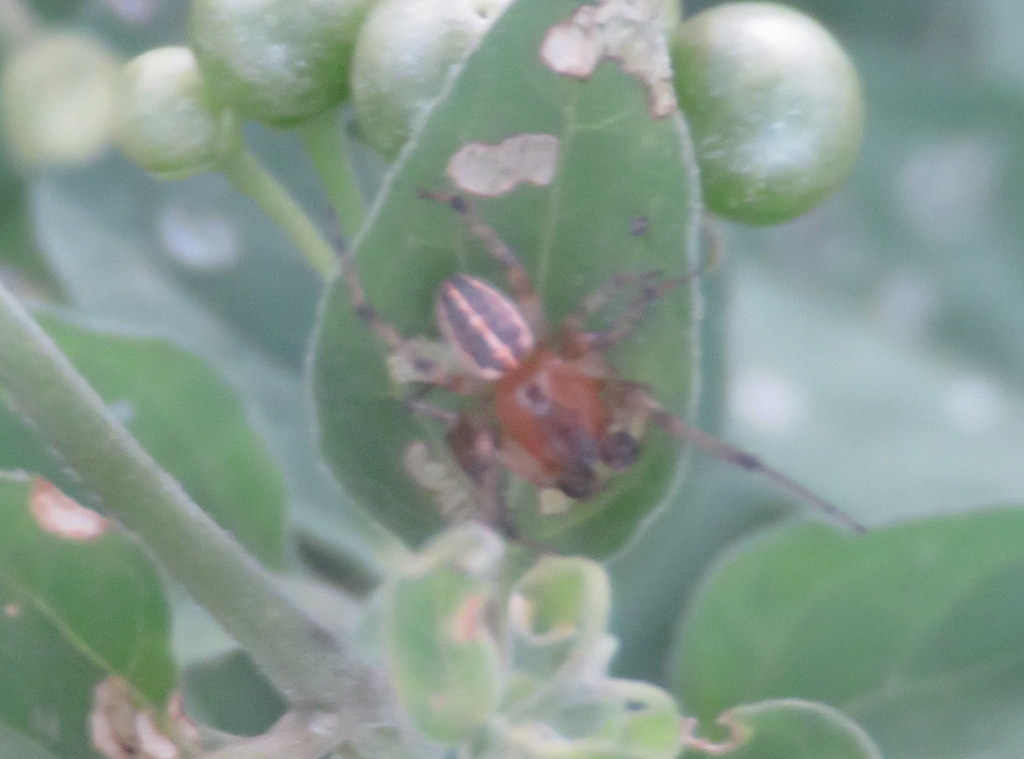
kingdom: Animalia
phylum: Arthropoda
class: Arachnida
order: Araneae
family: Araneidae
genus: Alpaida
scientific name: Alpaida veniliae
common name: Orb weavers
